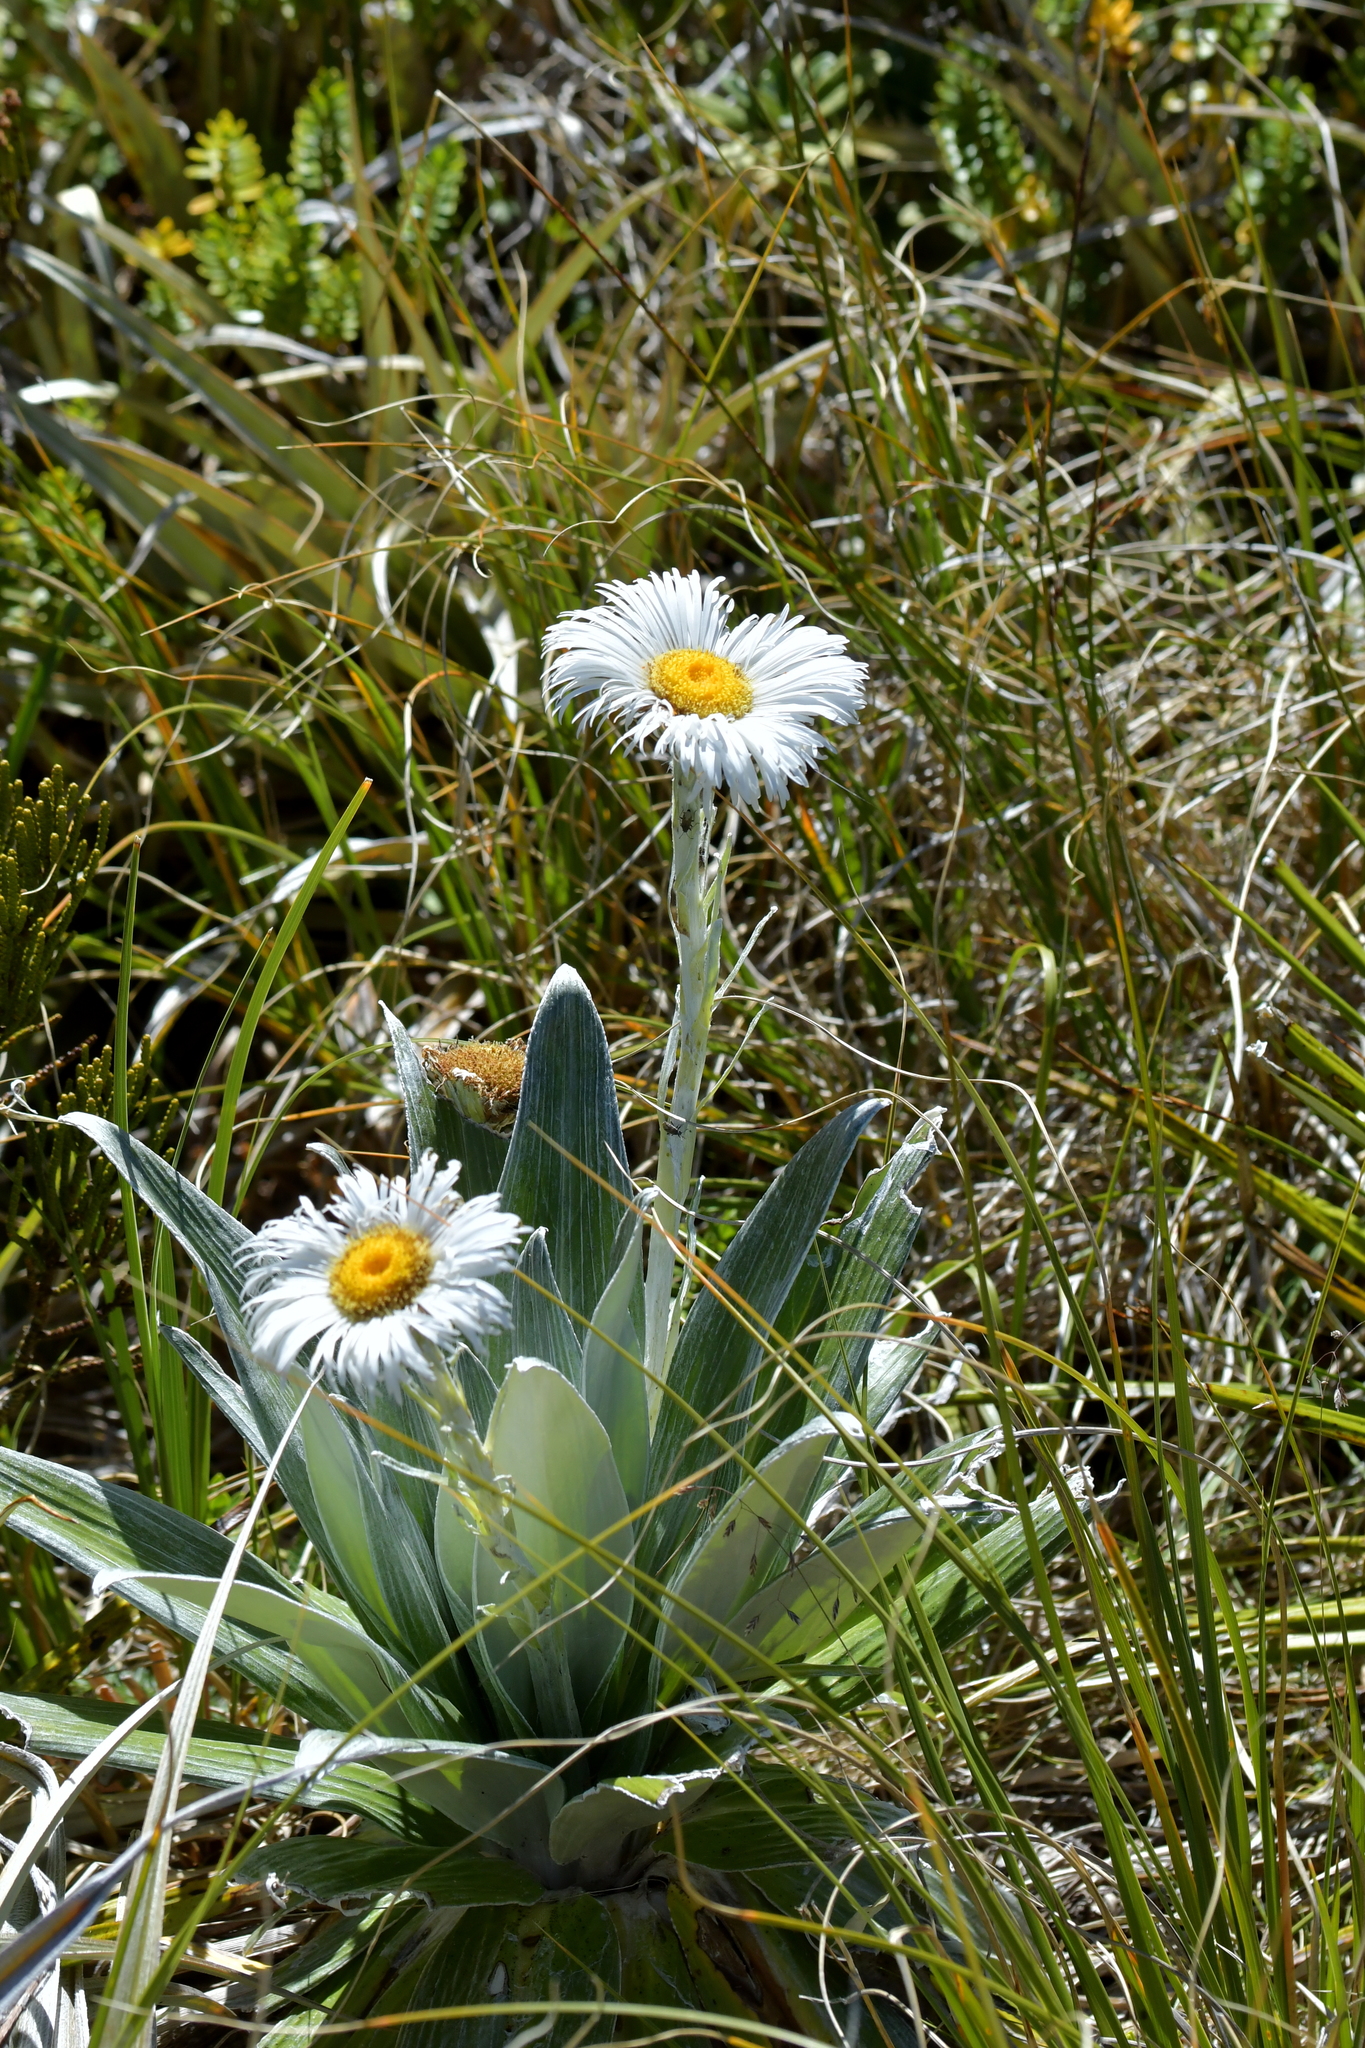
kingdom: Plantae
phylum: Tracheophyta
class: Magnoliopsida
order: Asterales
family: Asteraceae
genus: Celmisia
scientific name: Celmisia semicordata
